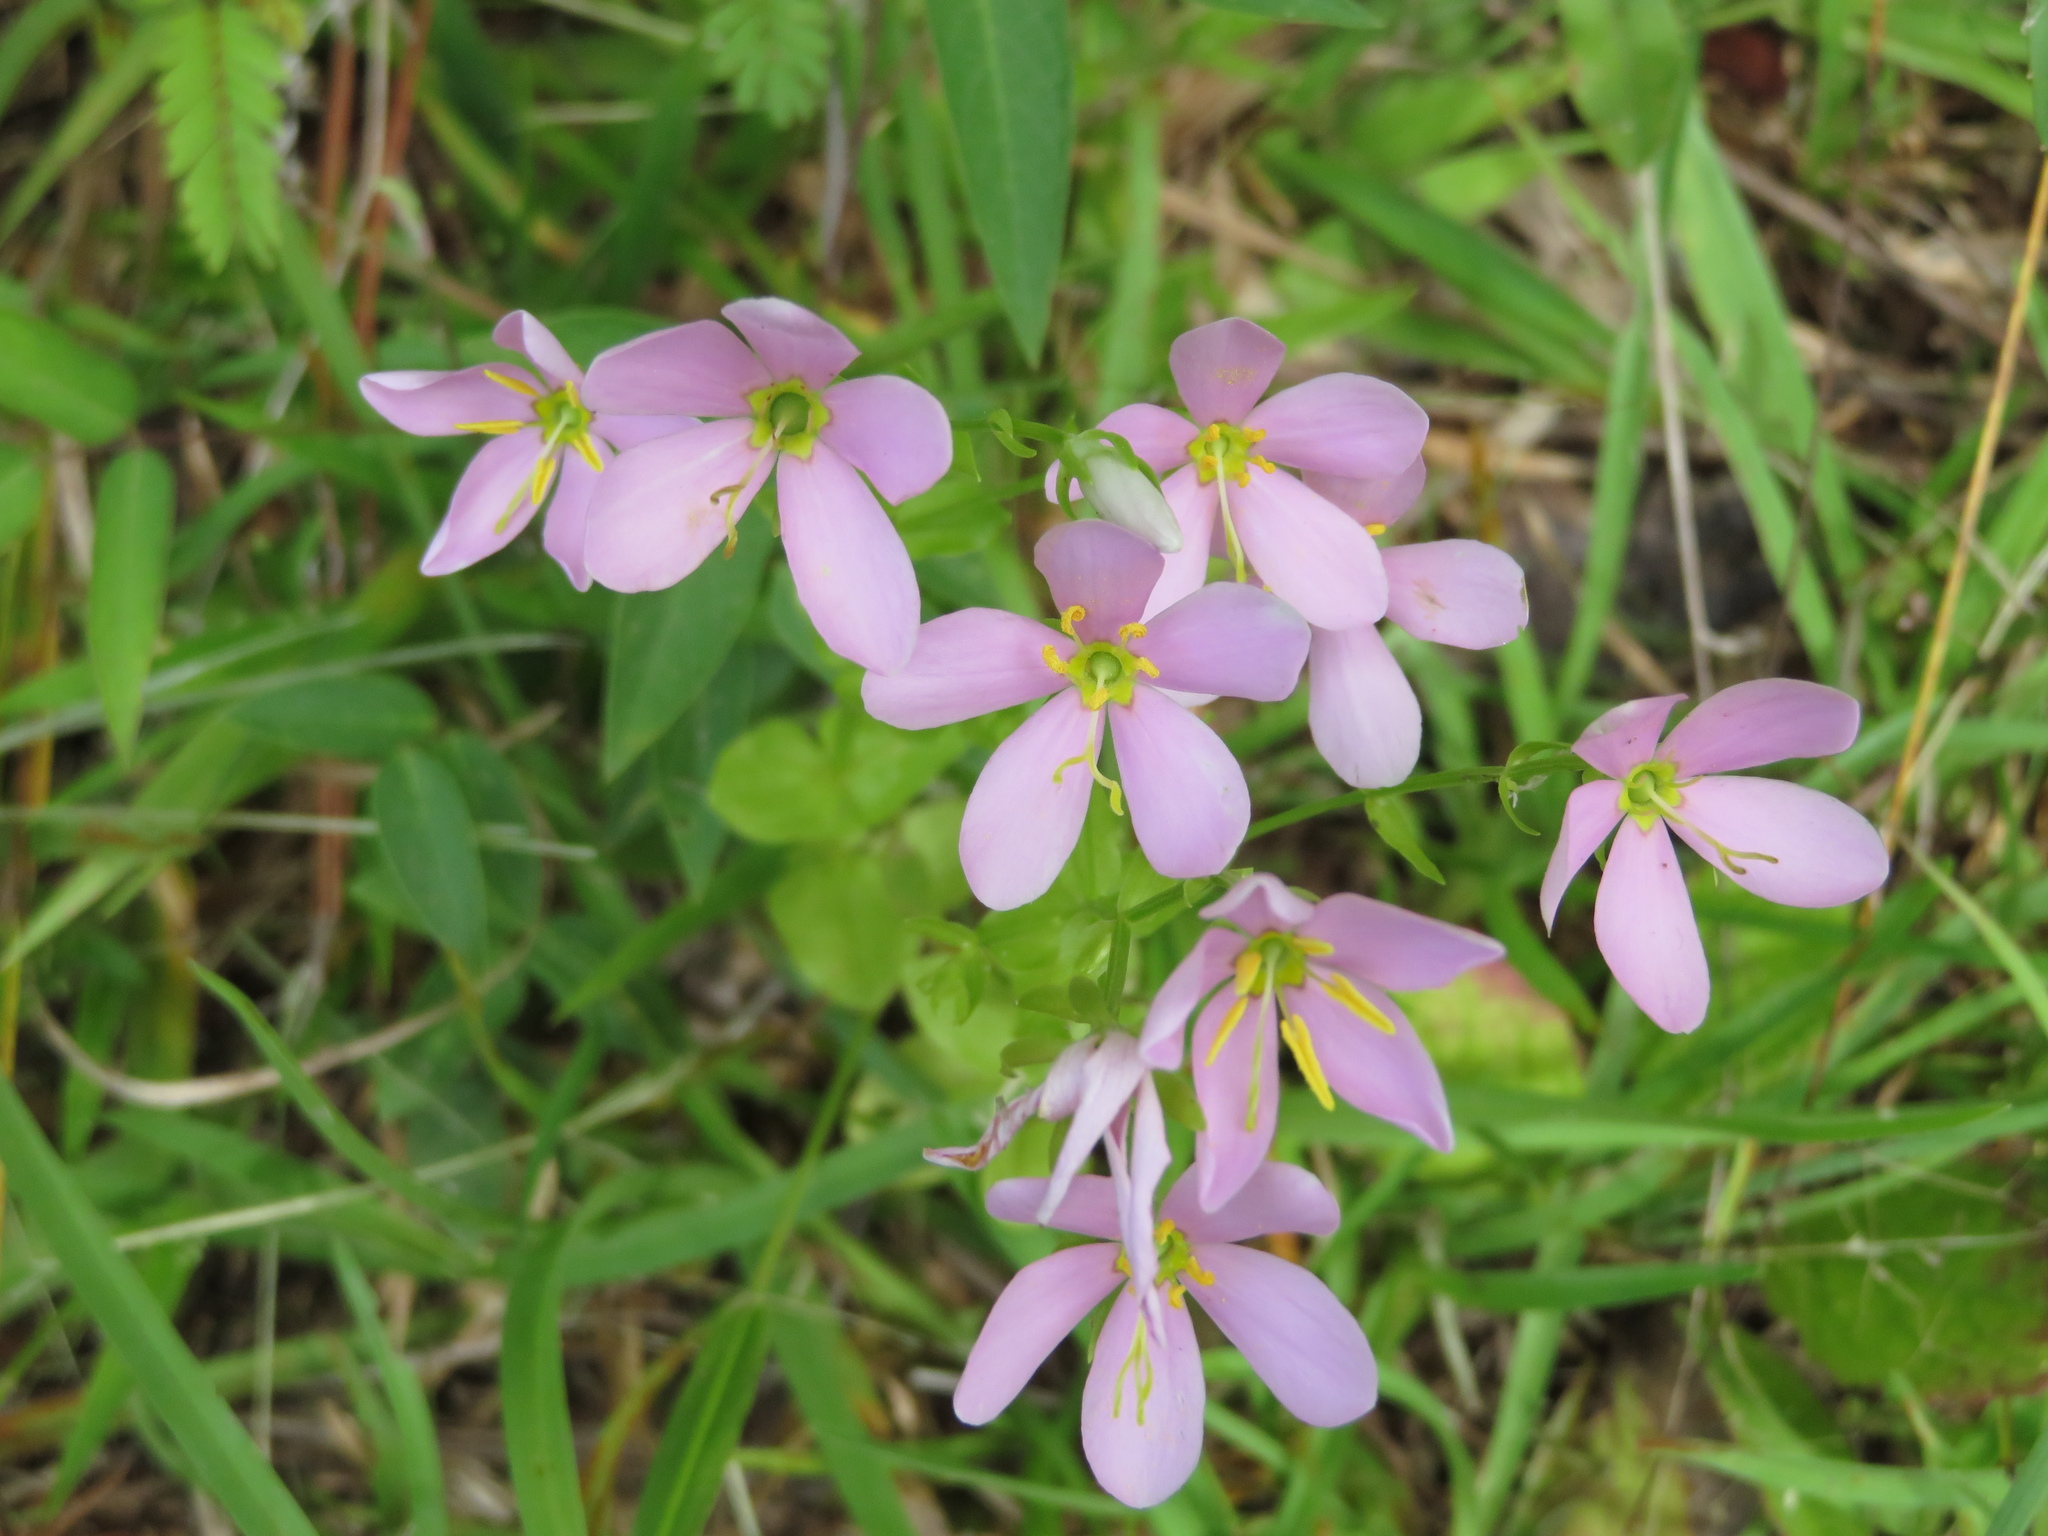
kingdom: Plantae
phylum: Tracheophyta
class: Magnoliopsida
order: Gentianales
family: Gentianaceae
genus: Sabatia
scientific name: Sabatia angularis
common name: Rose-pink
